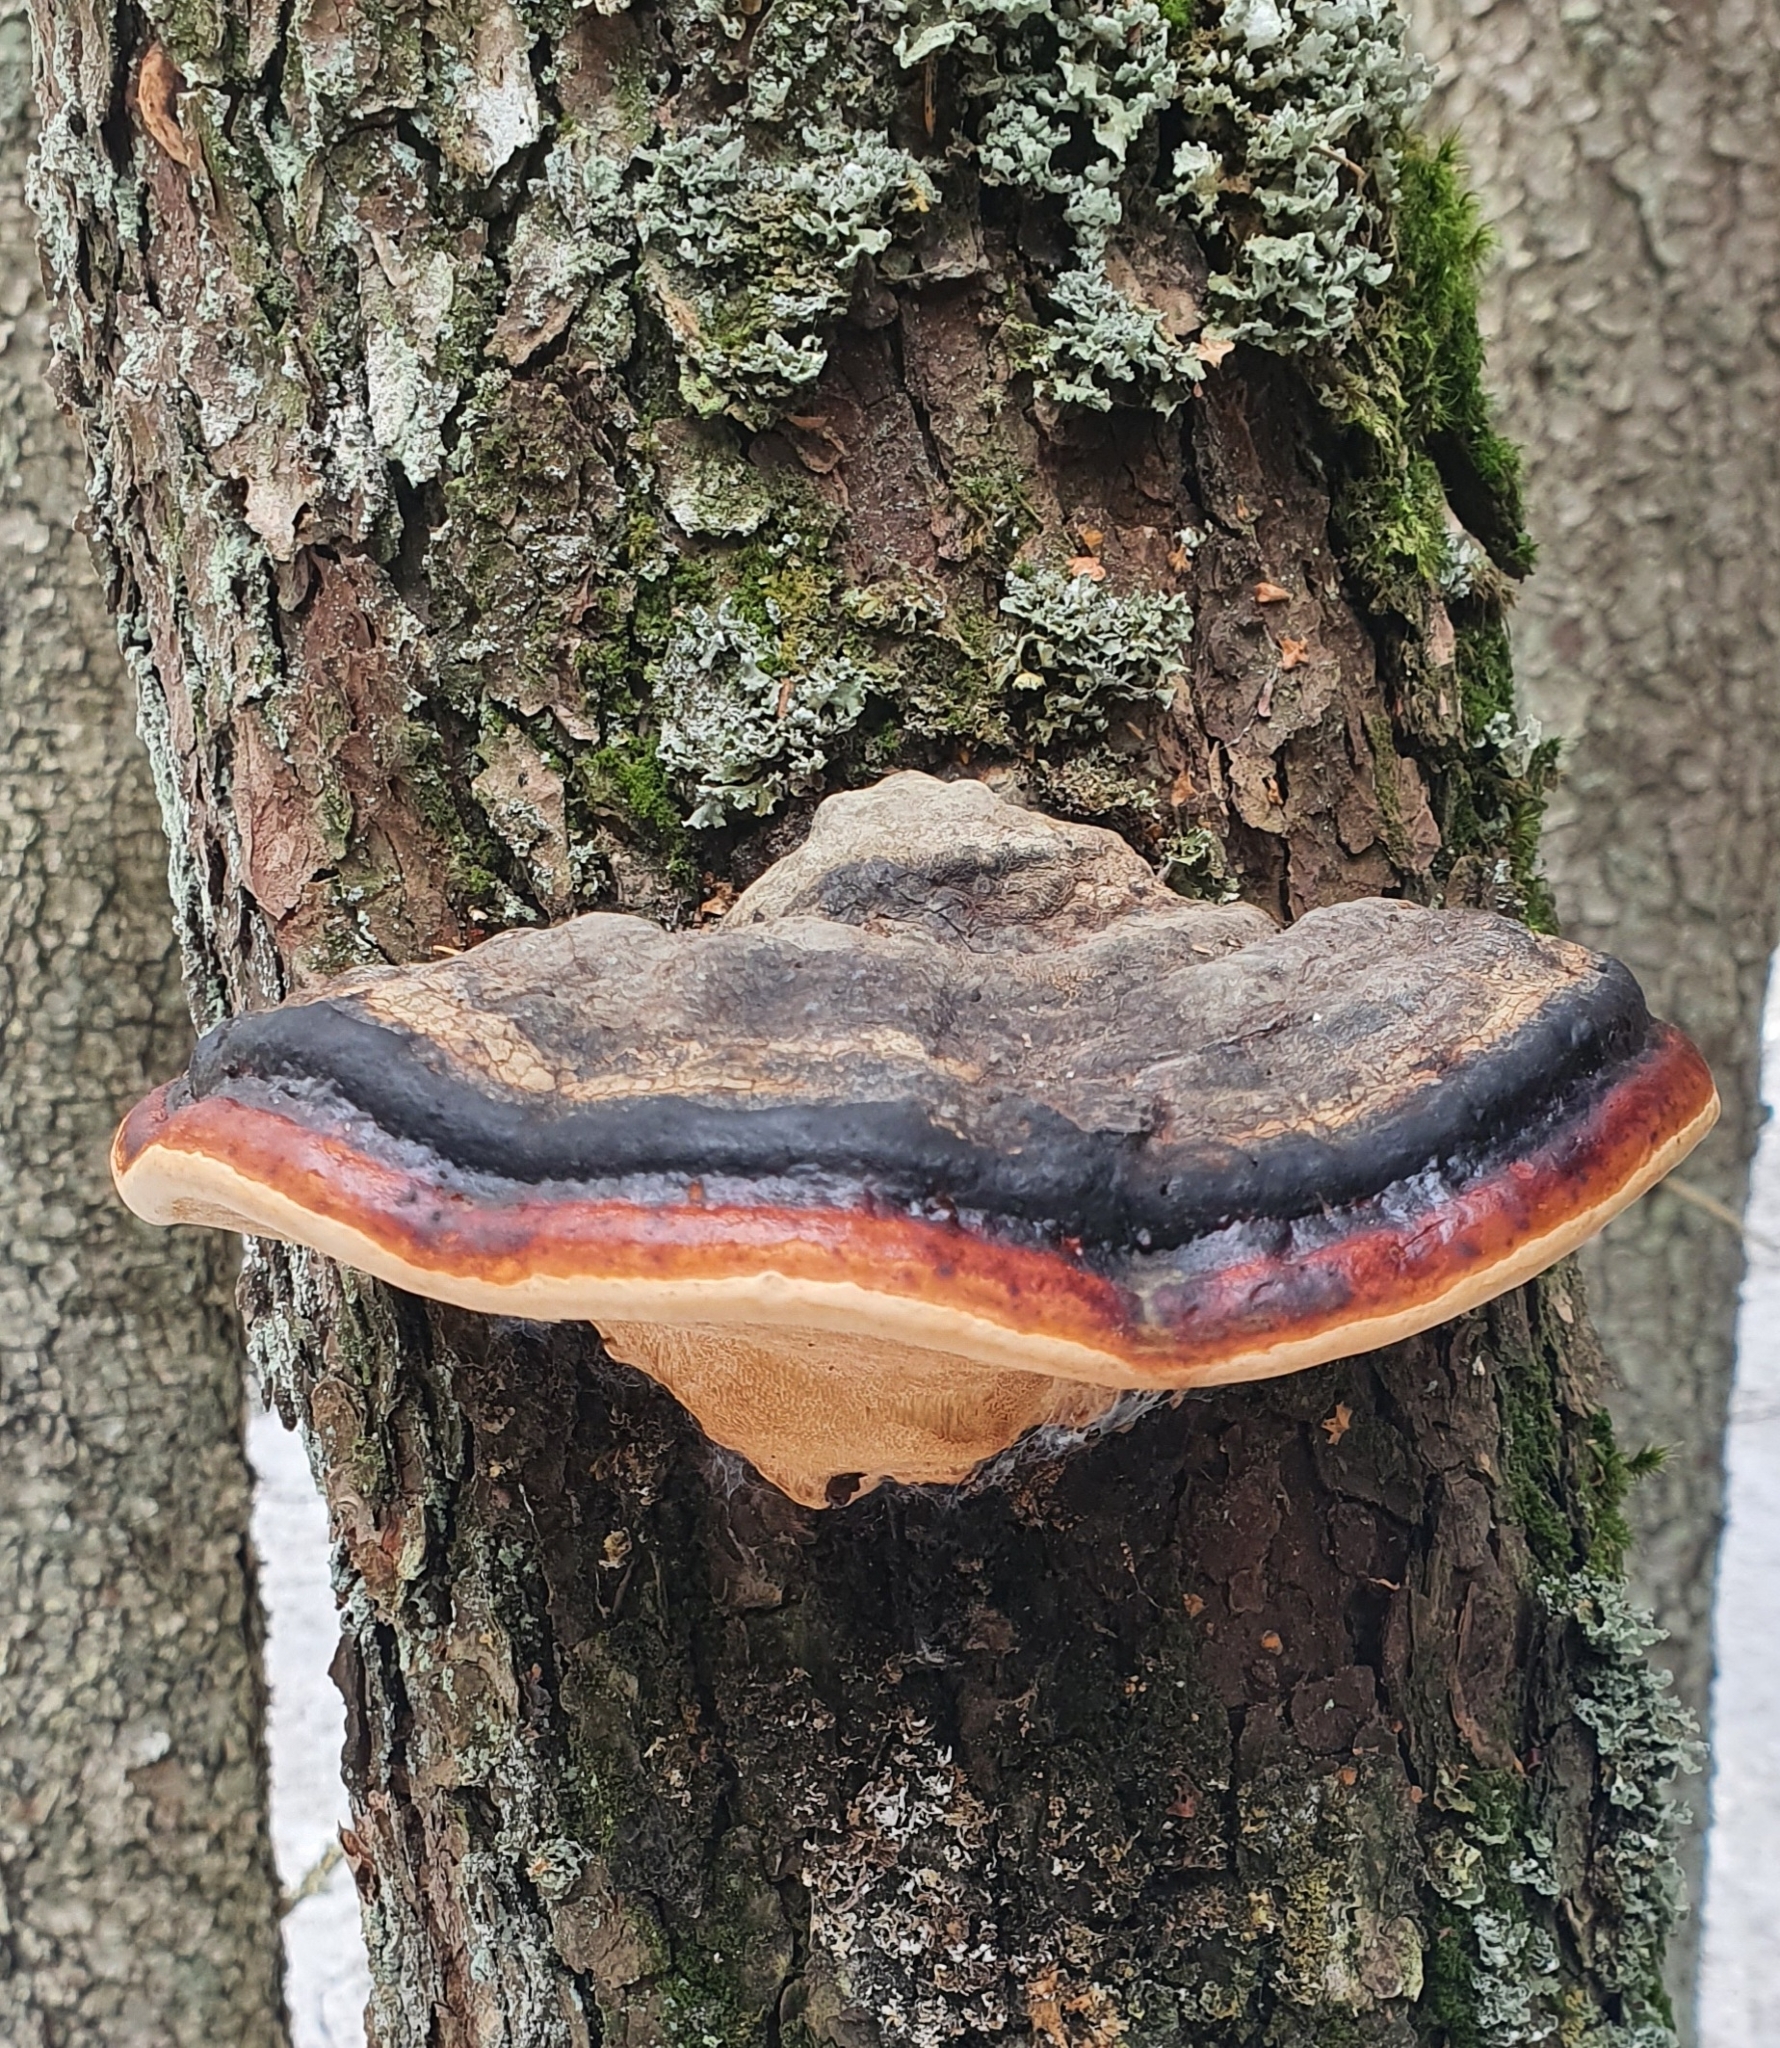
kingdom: Fungi
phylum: Basidiomycota
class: Agaricomycetes
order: Polyporales
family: Fomitopsidaceae
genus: Fomitopsis
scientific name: Fomitopsis pinicola
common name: Red-belted bracket
